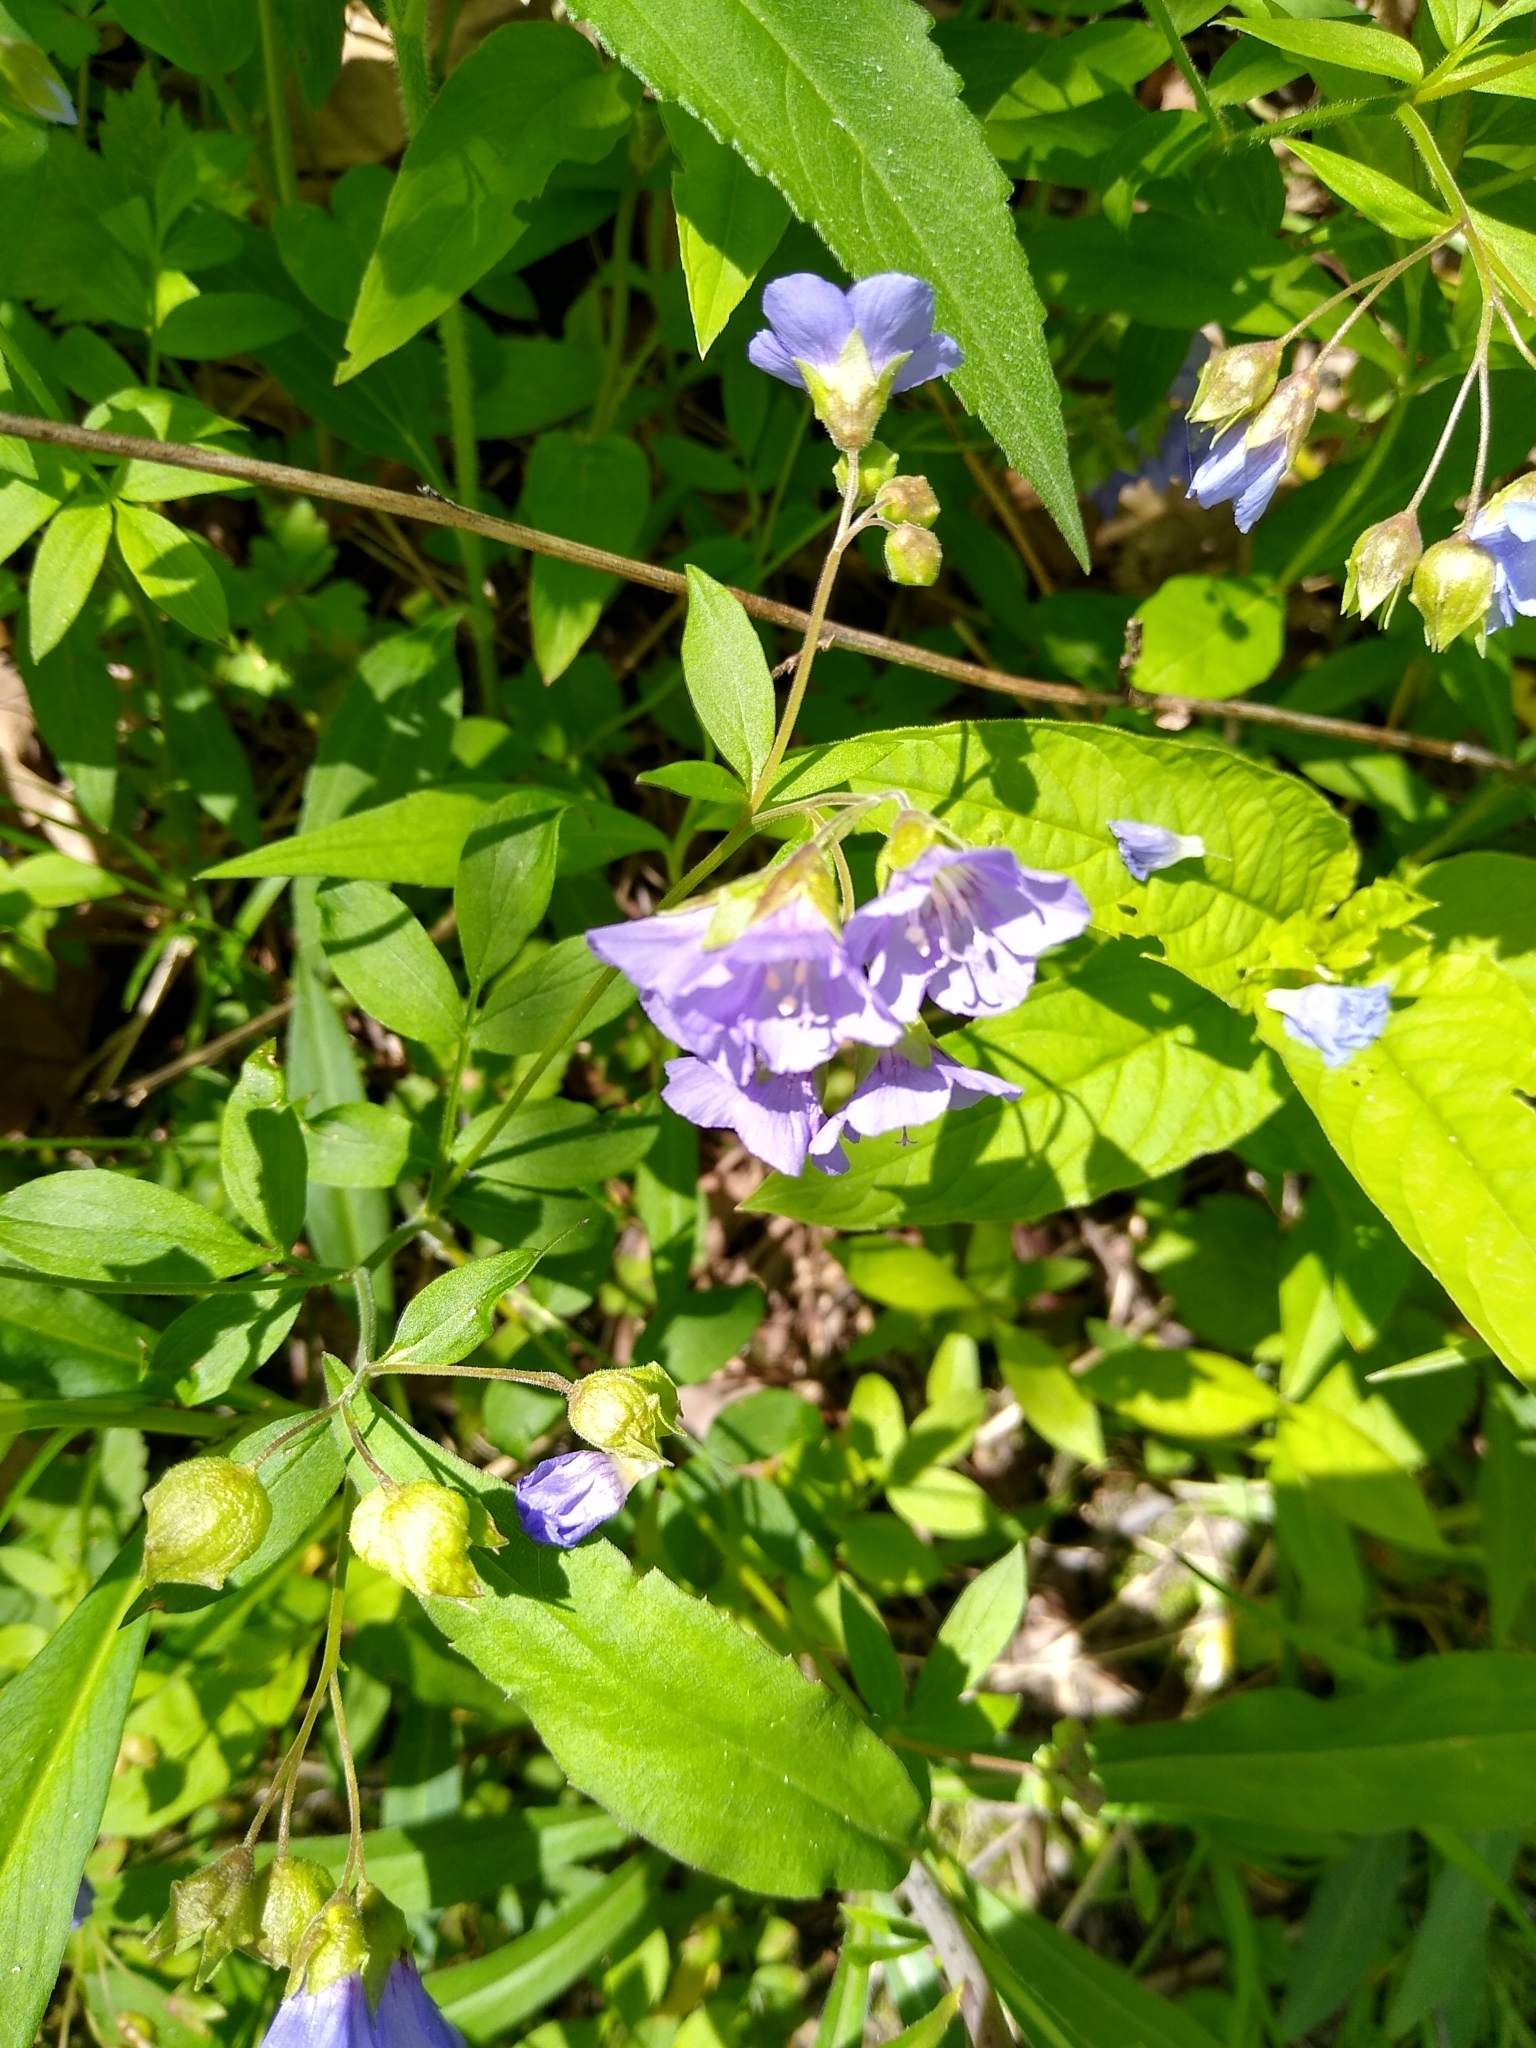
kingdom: Plantae
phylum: Tracheophyta
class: Magnoliopsida
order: Ericales
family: Polemoniaceae
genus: Polemonium
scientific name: Polemonium reptans
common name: Creeping jacob's-ladder
